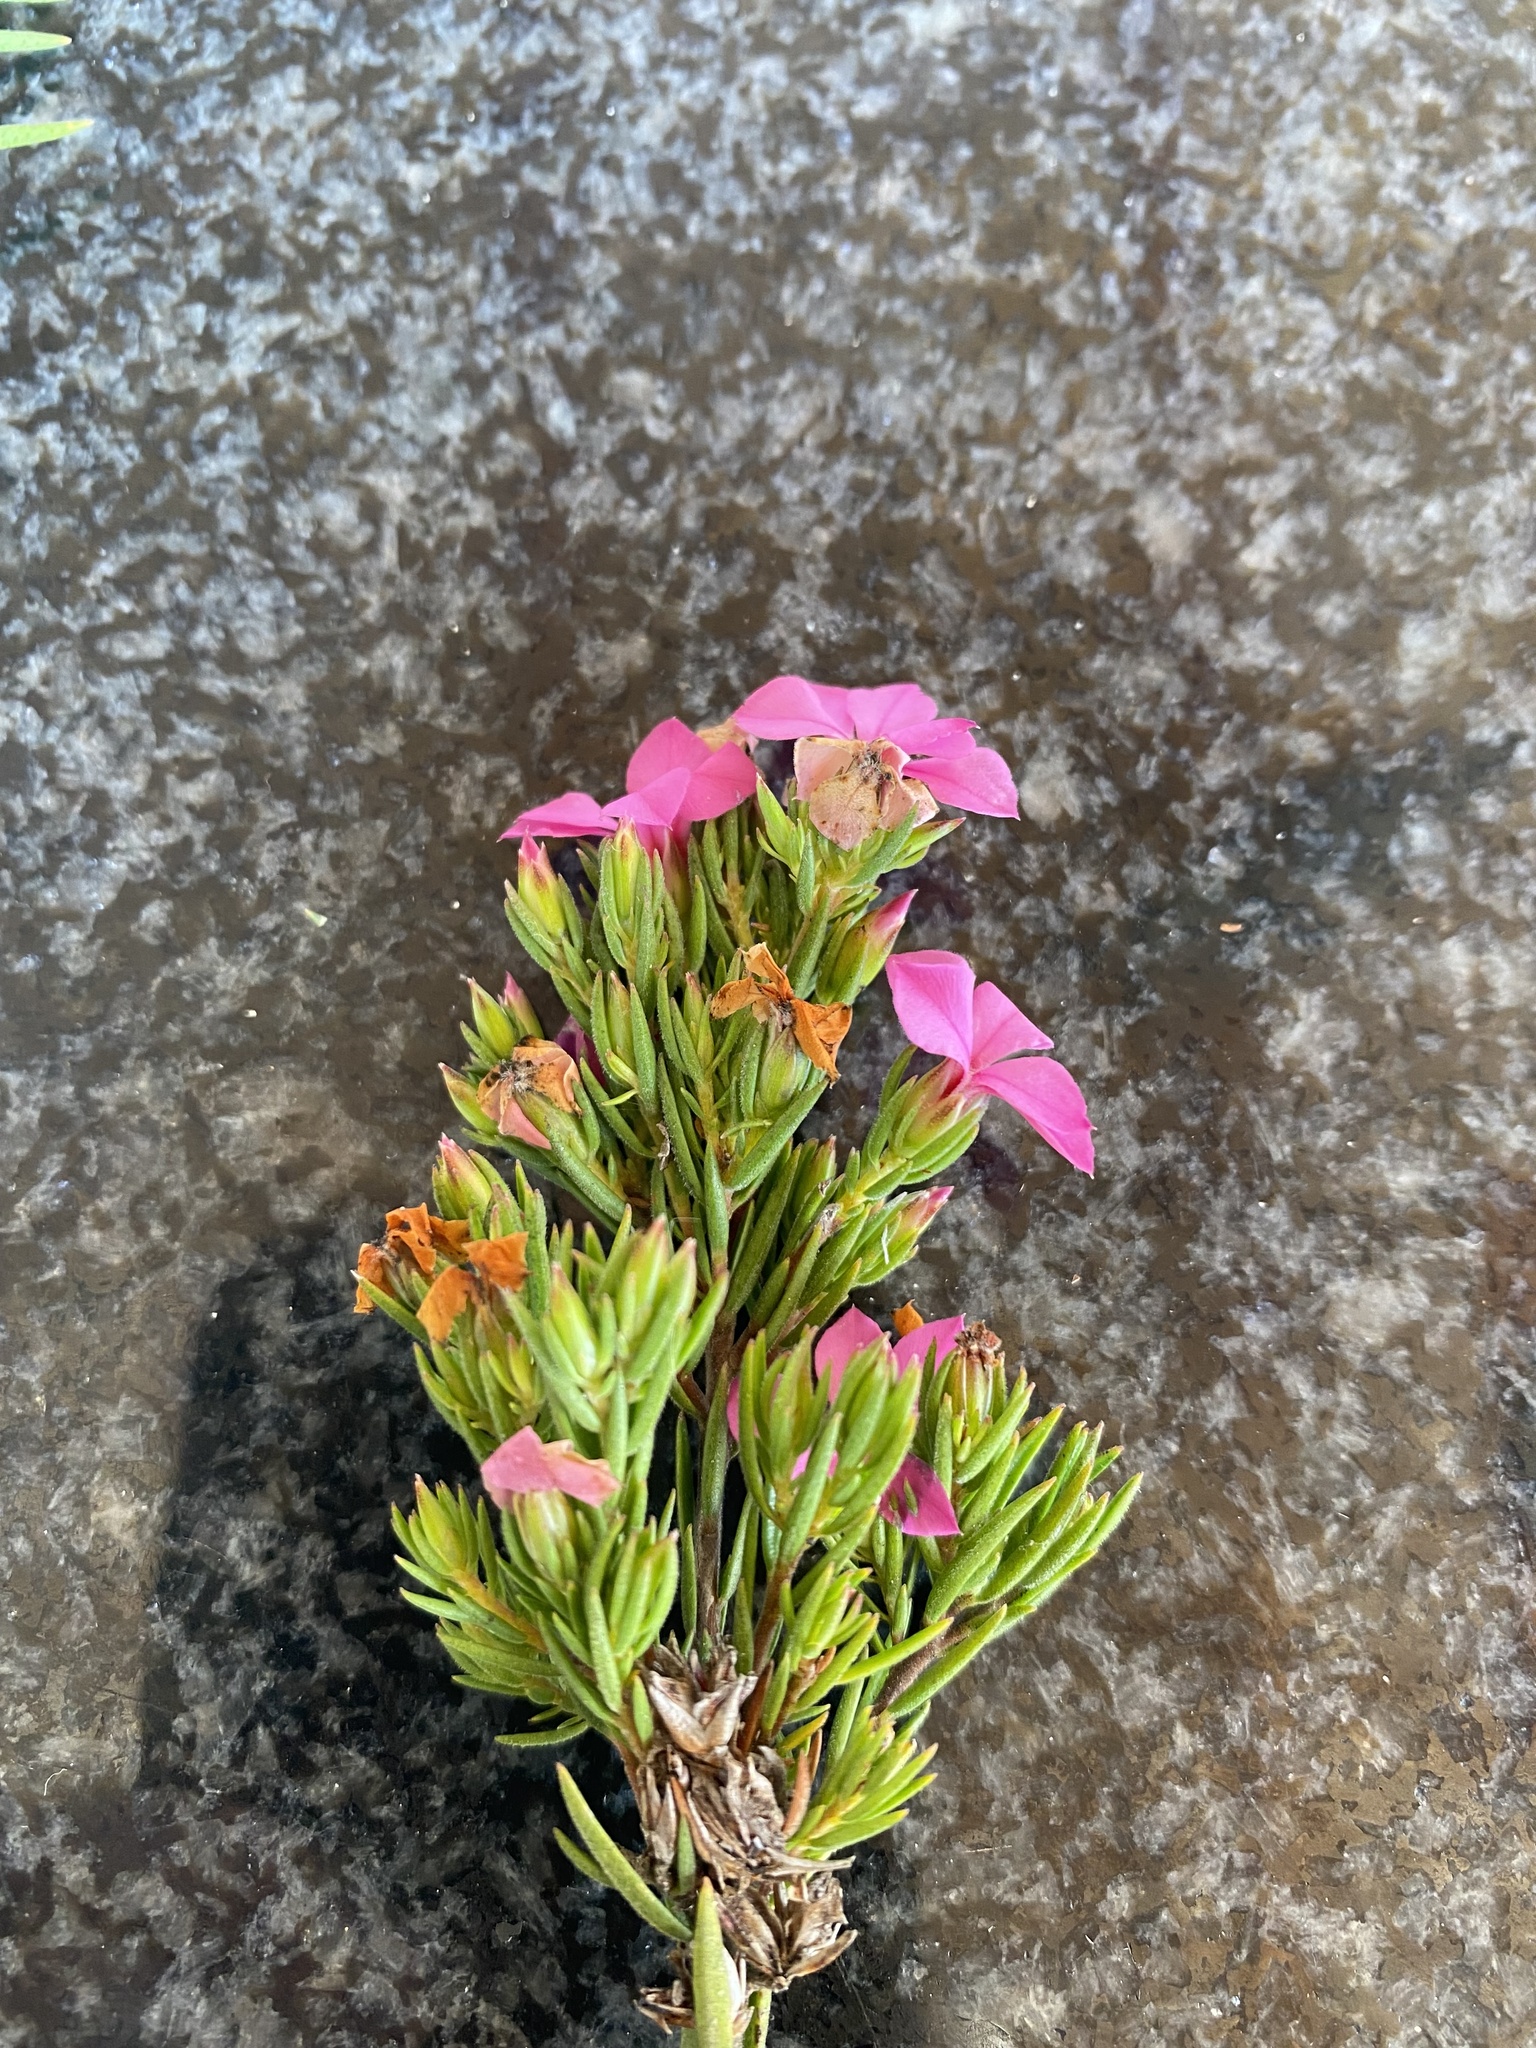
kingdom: Plantae
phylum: Tracheophyta
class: Magnoliopsida
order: Sapindales
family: Rutaceae
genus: Acmadenia
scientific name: Acmadenia obtusata
